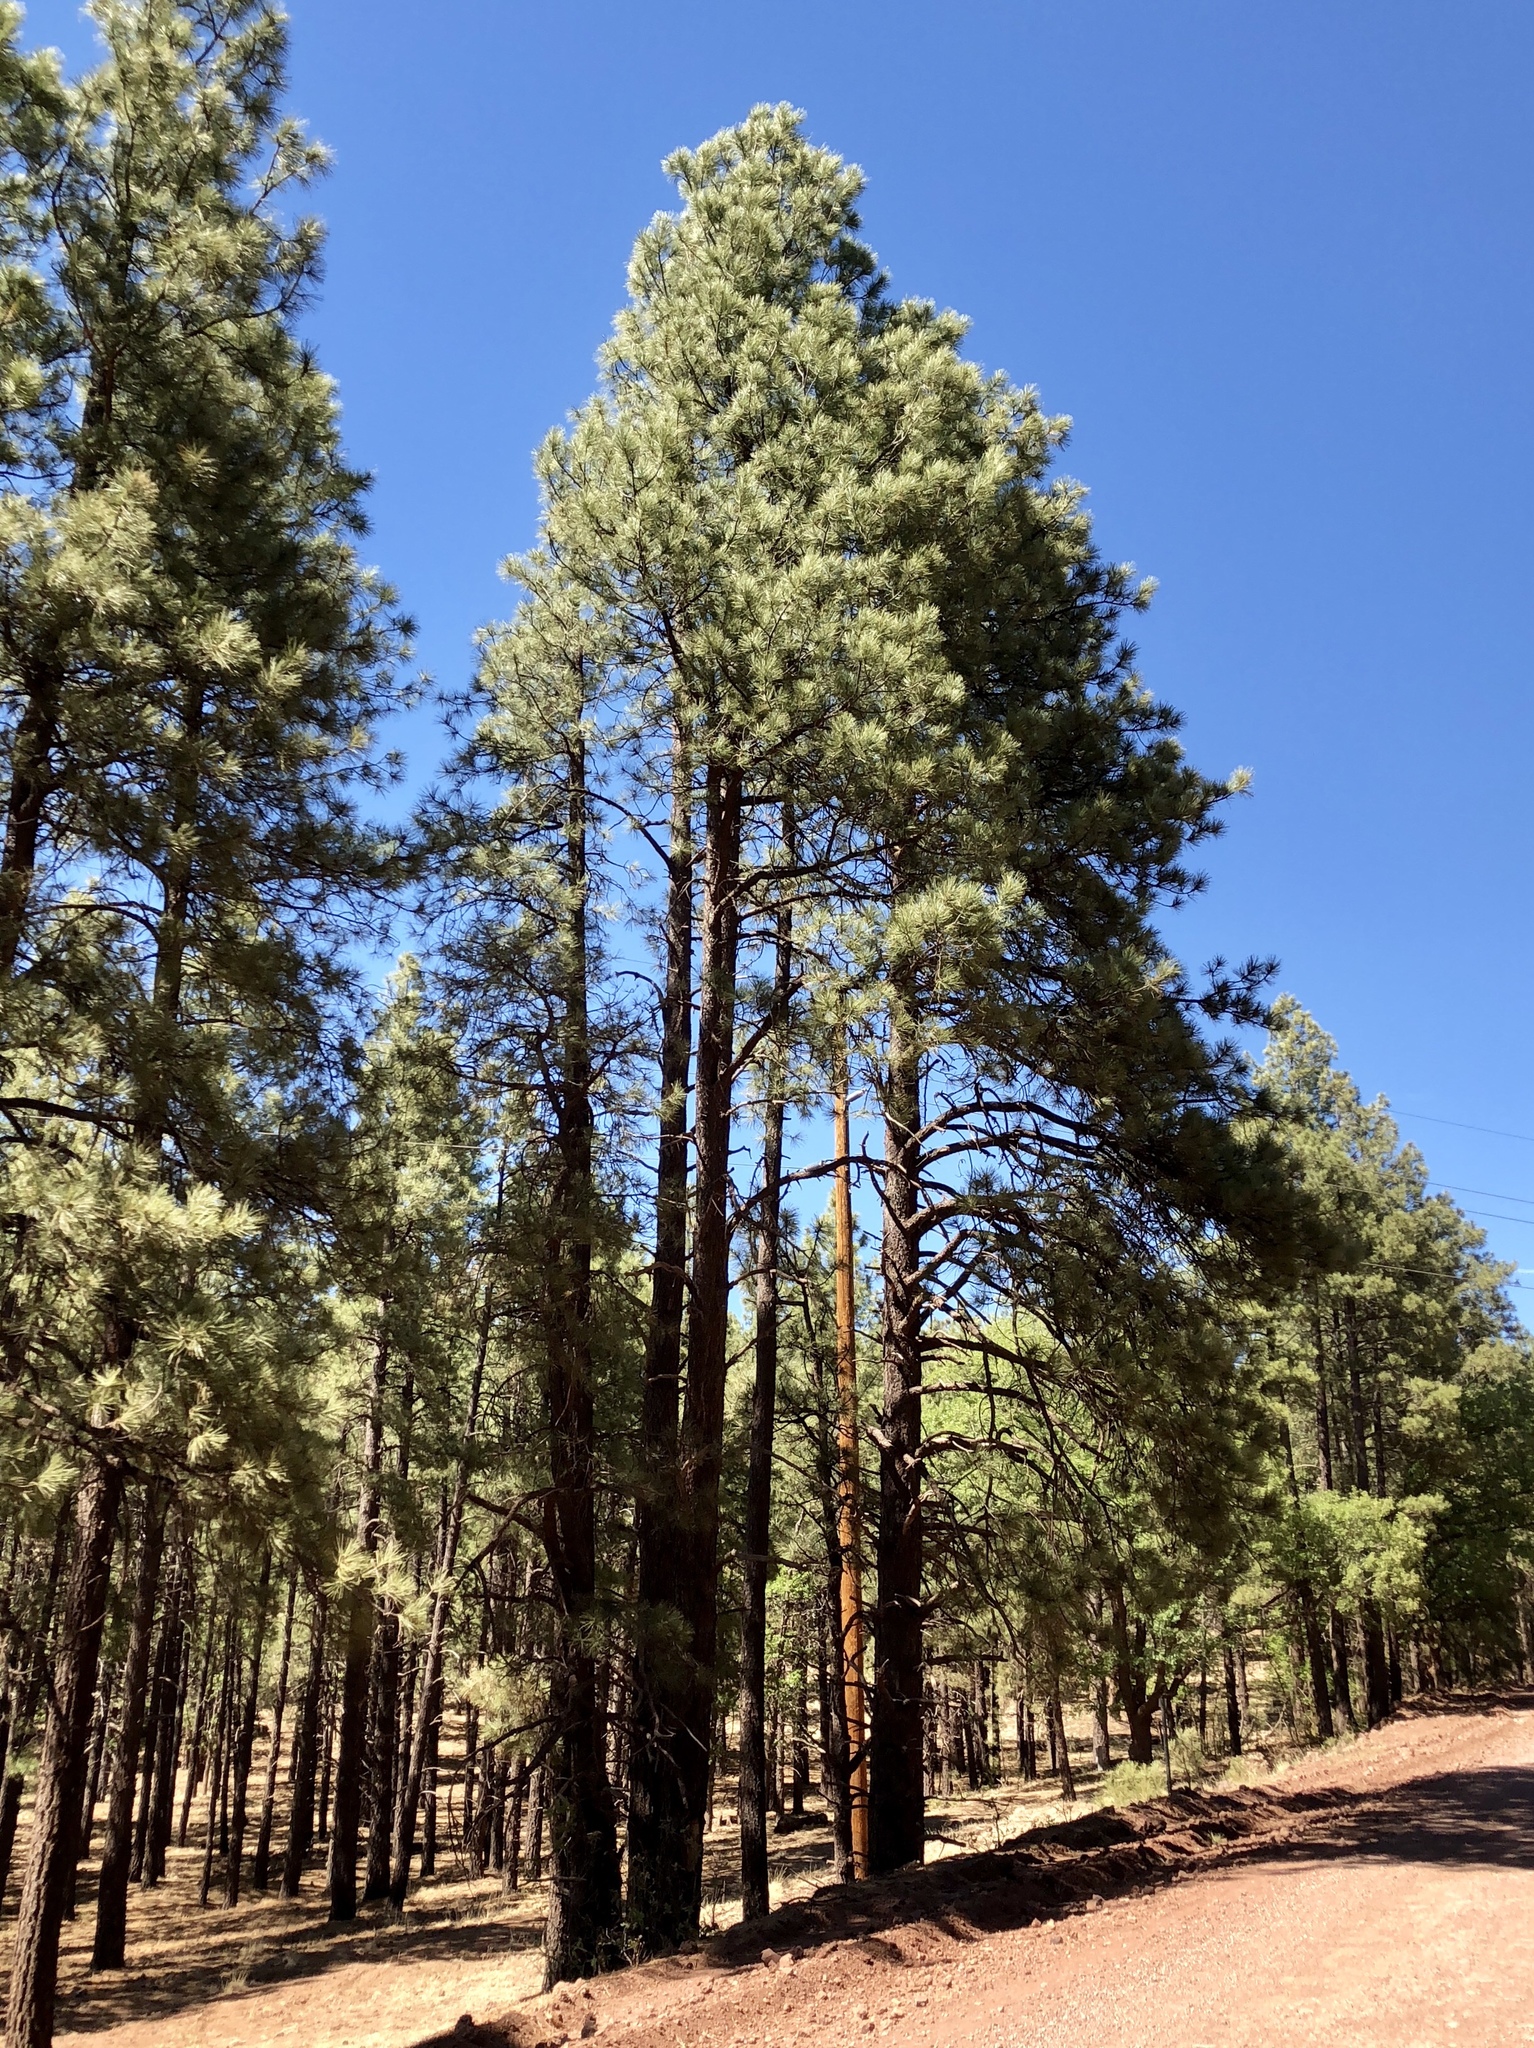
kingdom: Plantae
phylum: Tracheophyta
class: Pinopsida
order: Pinales
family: Pinaceae
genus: Pinus
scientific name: Pinus ponderosa
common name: Western yellow-pine
